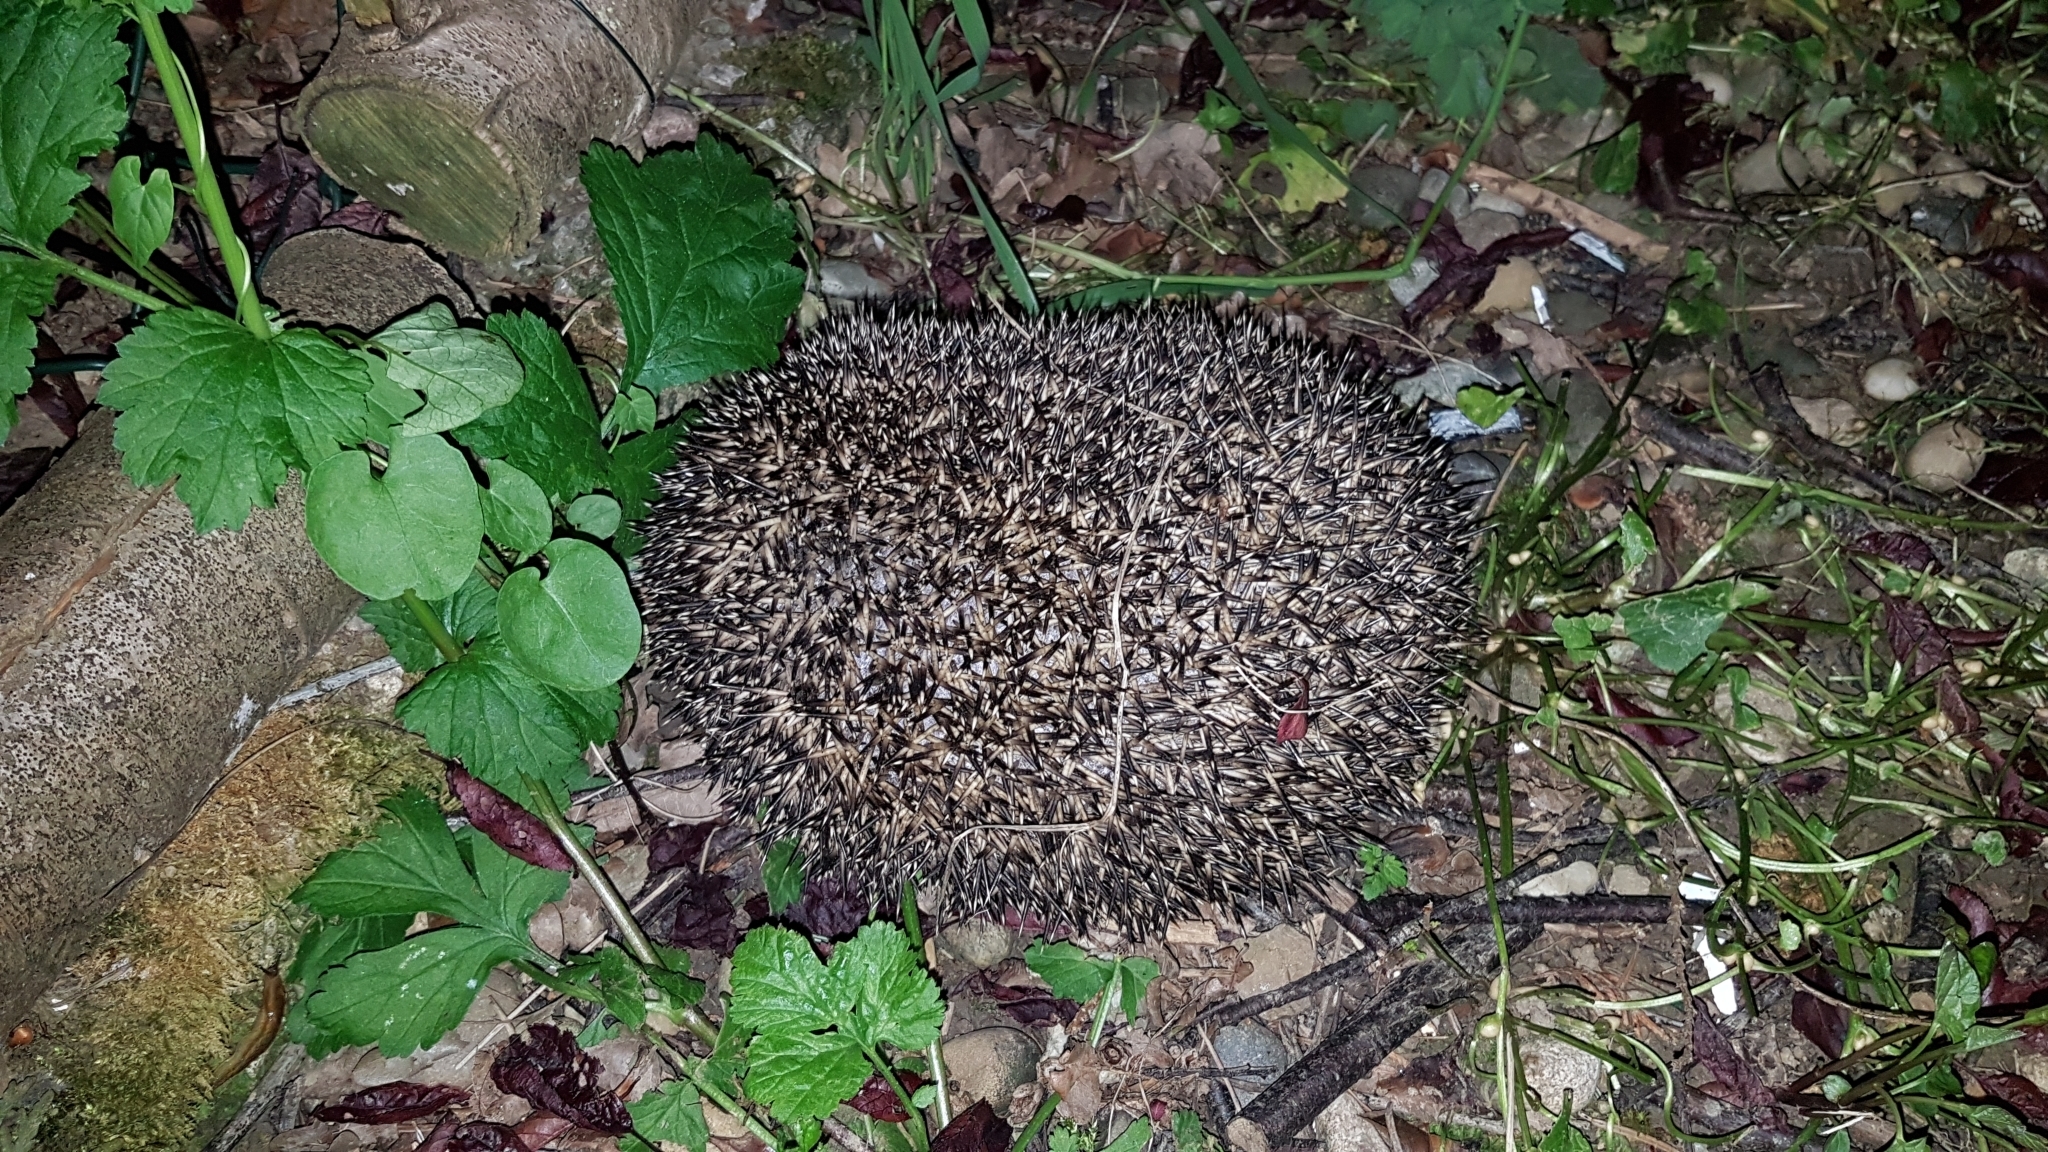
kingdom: Animalia
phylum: Chordata
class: Mammalia
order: Erinaceomorpha
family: Erinaceidae
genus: Erinaceus
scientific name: Erinaceus europaeus
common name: West european hedgehog
